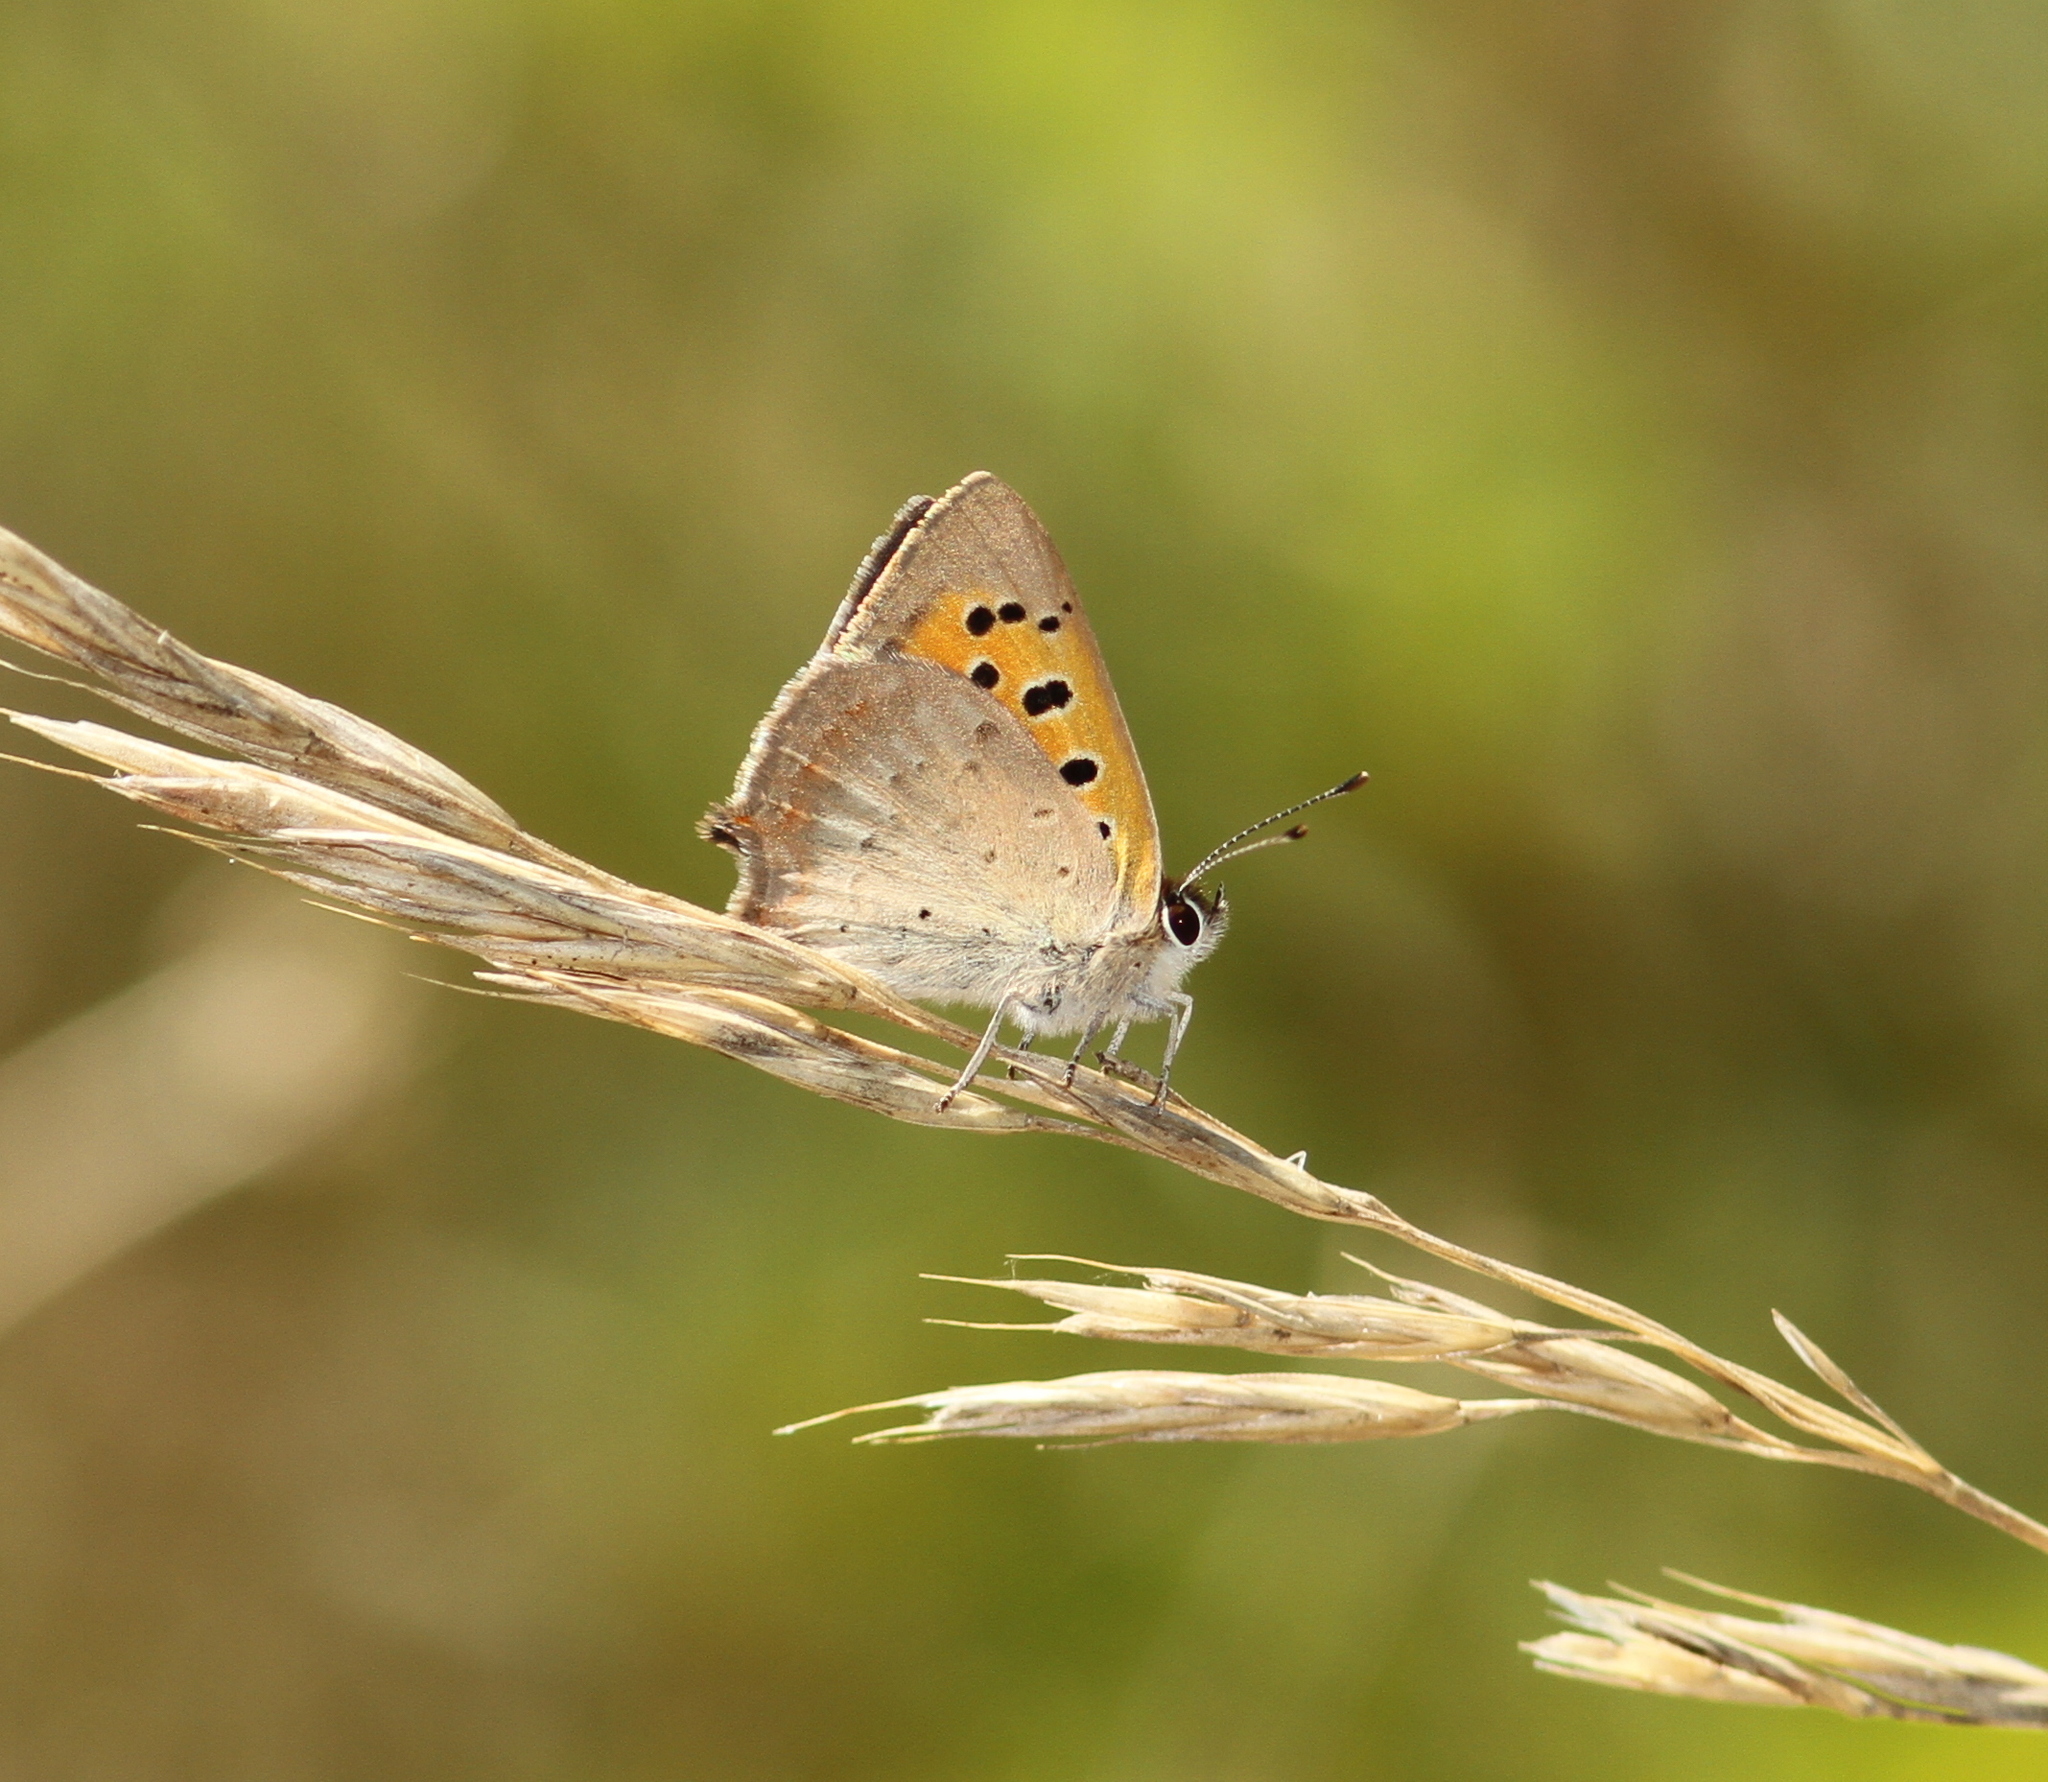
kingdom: Animalia
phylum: Arthropoda
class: Insecta
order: Lepidoptera
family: Lycaenidae
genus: Lycaena
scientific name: Lycaena phlaeas
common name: Small copper
